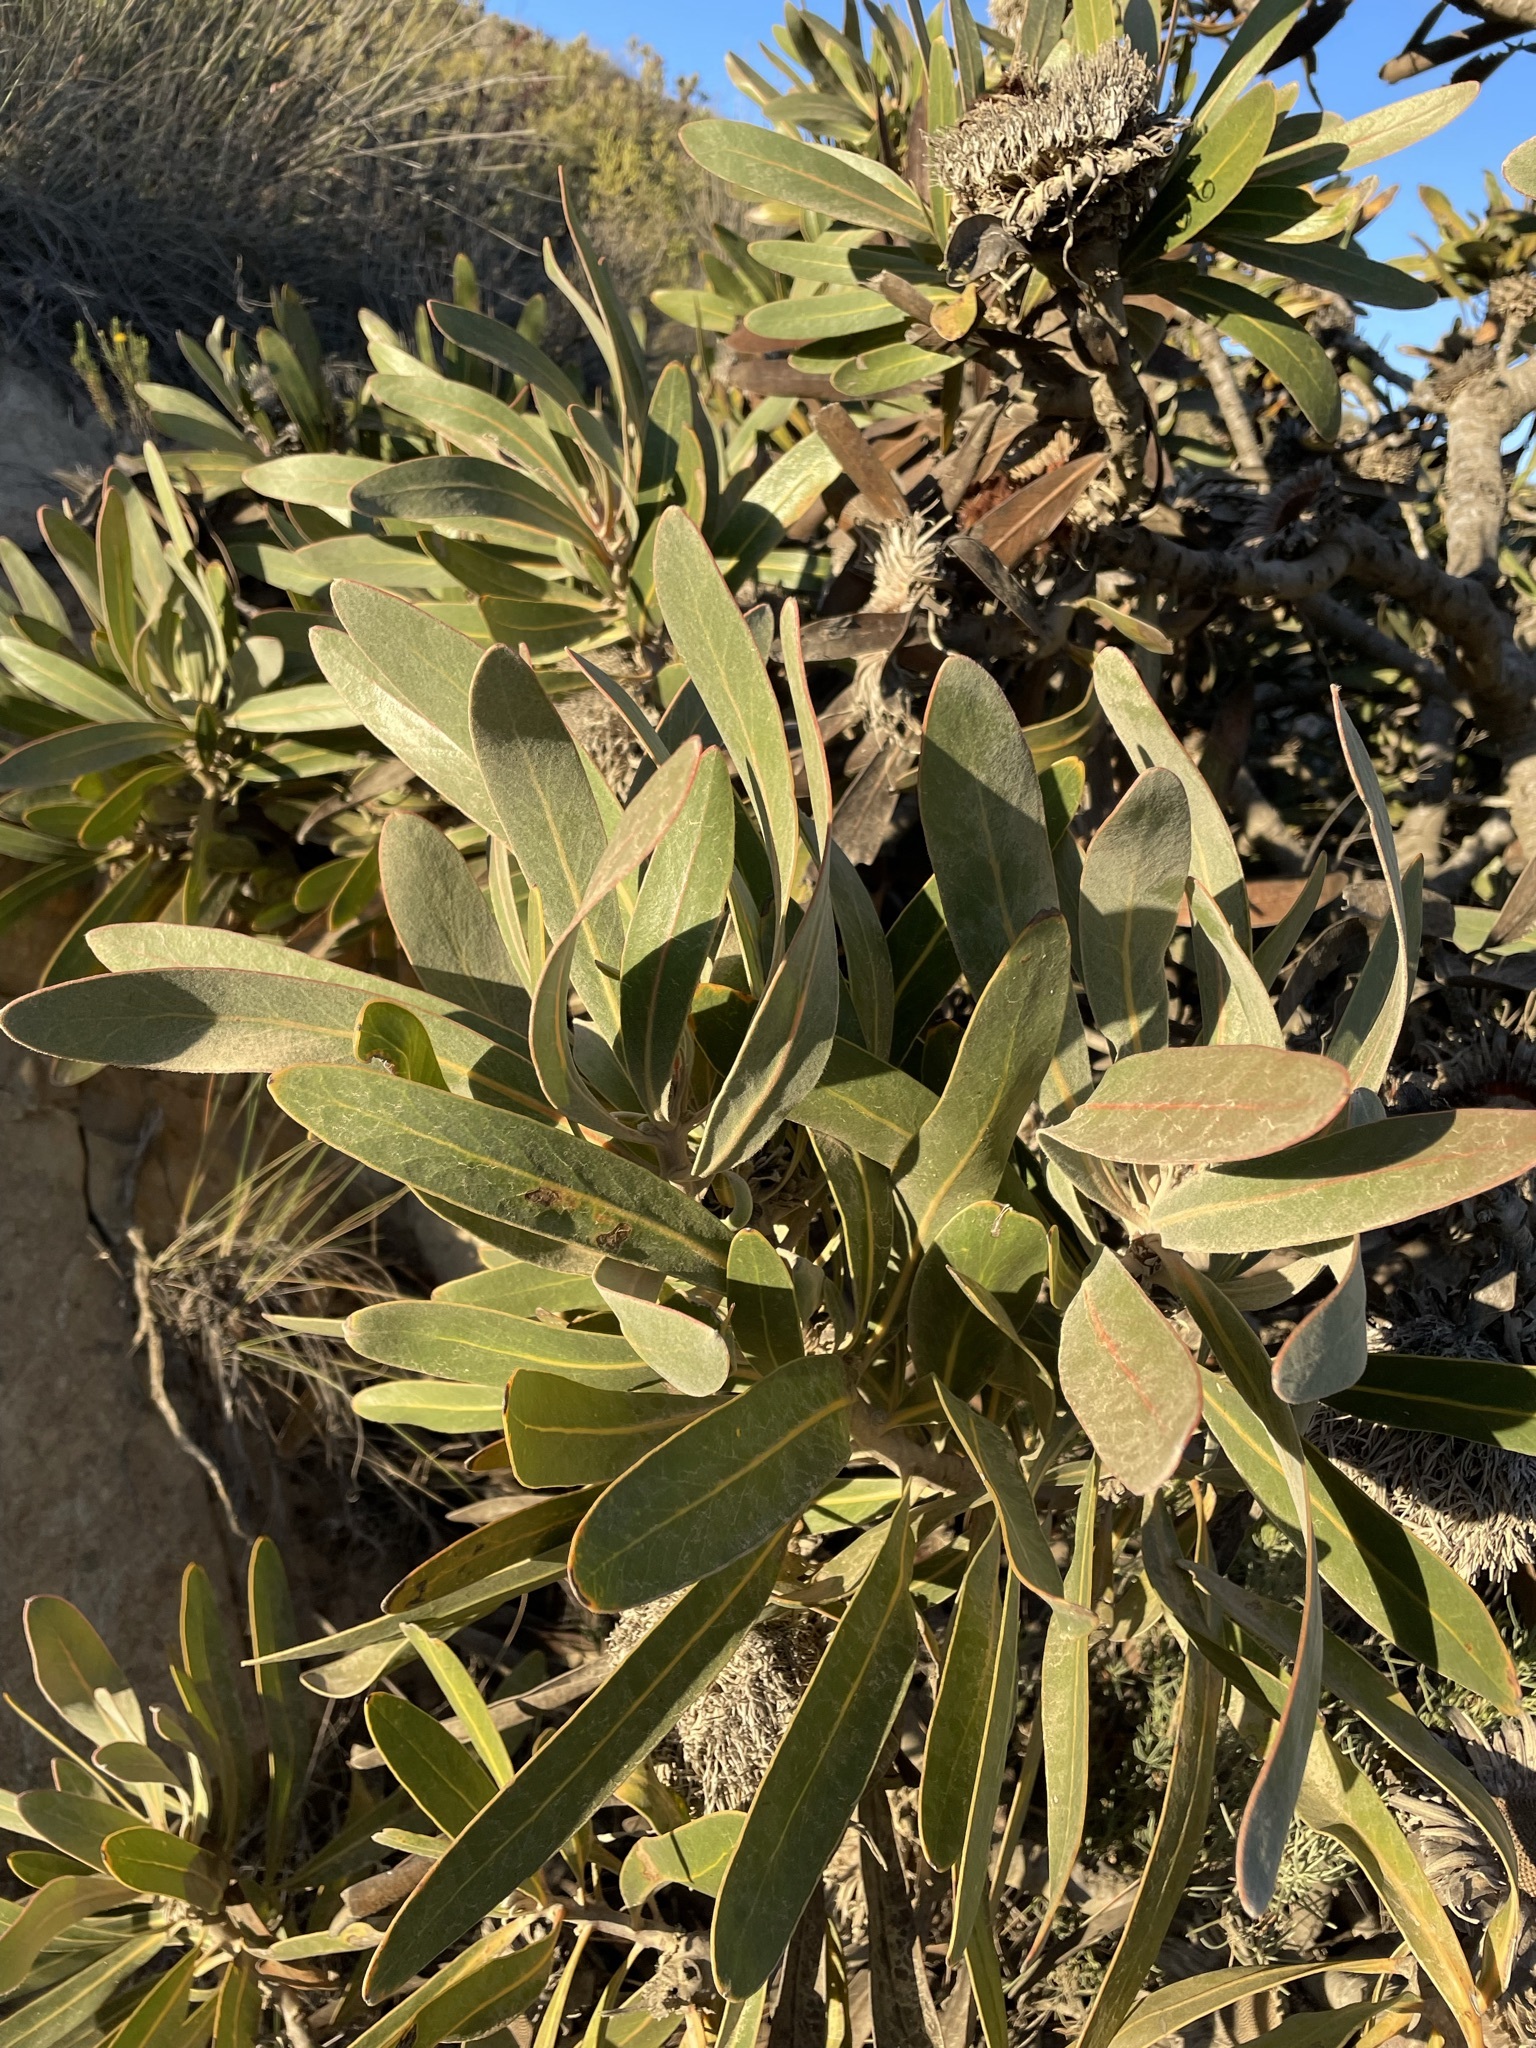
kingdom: Plantae
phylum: Tracheophyta
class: Magnoliopsida
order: Proteales
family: Proteaceae
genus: Protea
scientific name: Protea lorifolia
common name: Strap-leaved protea
